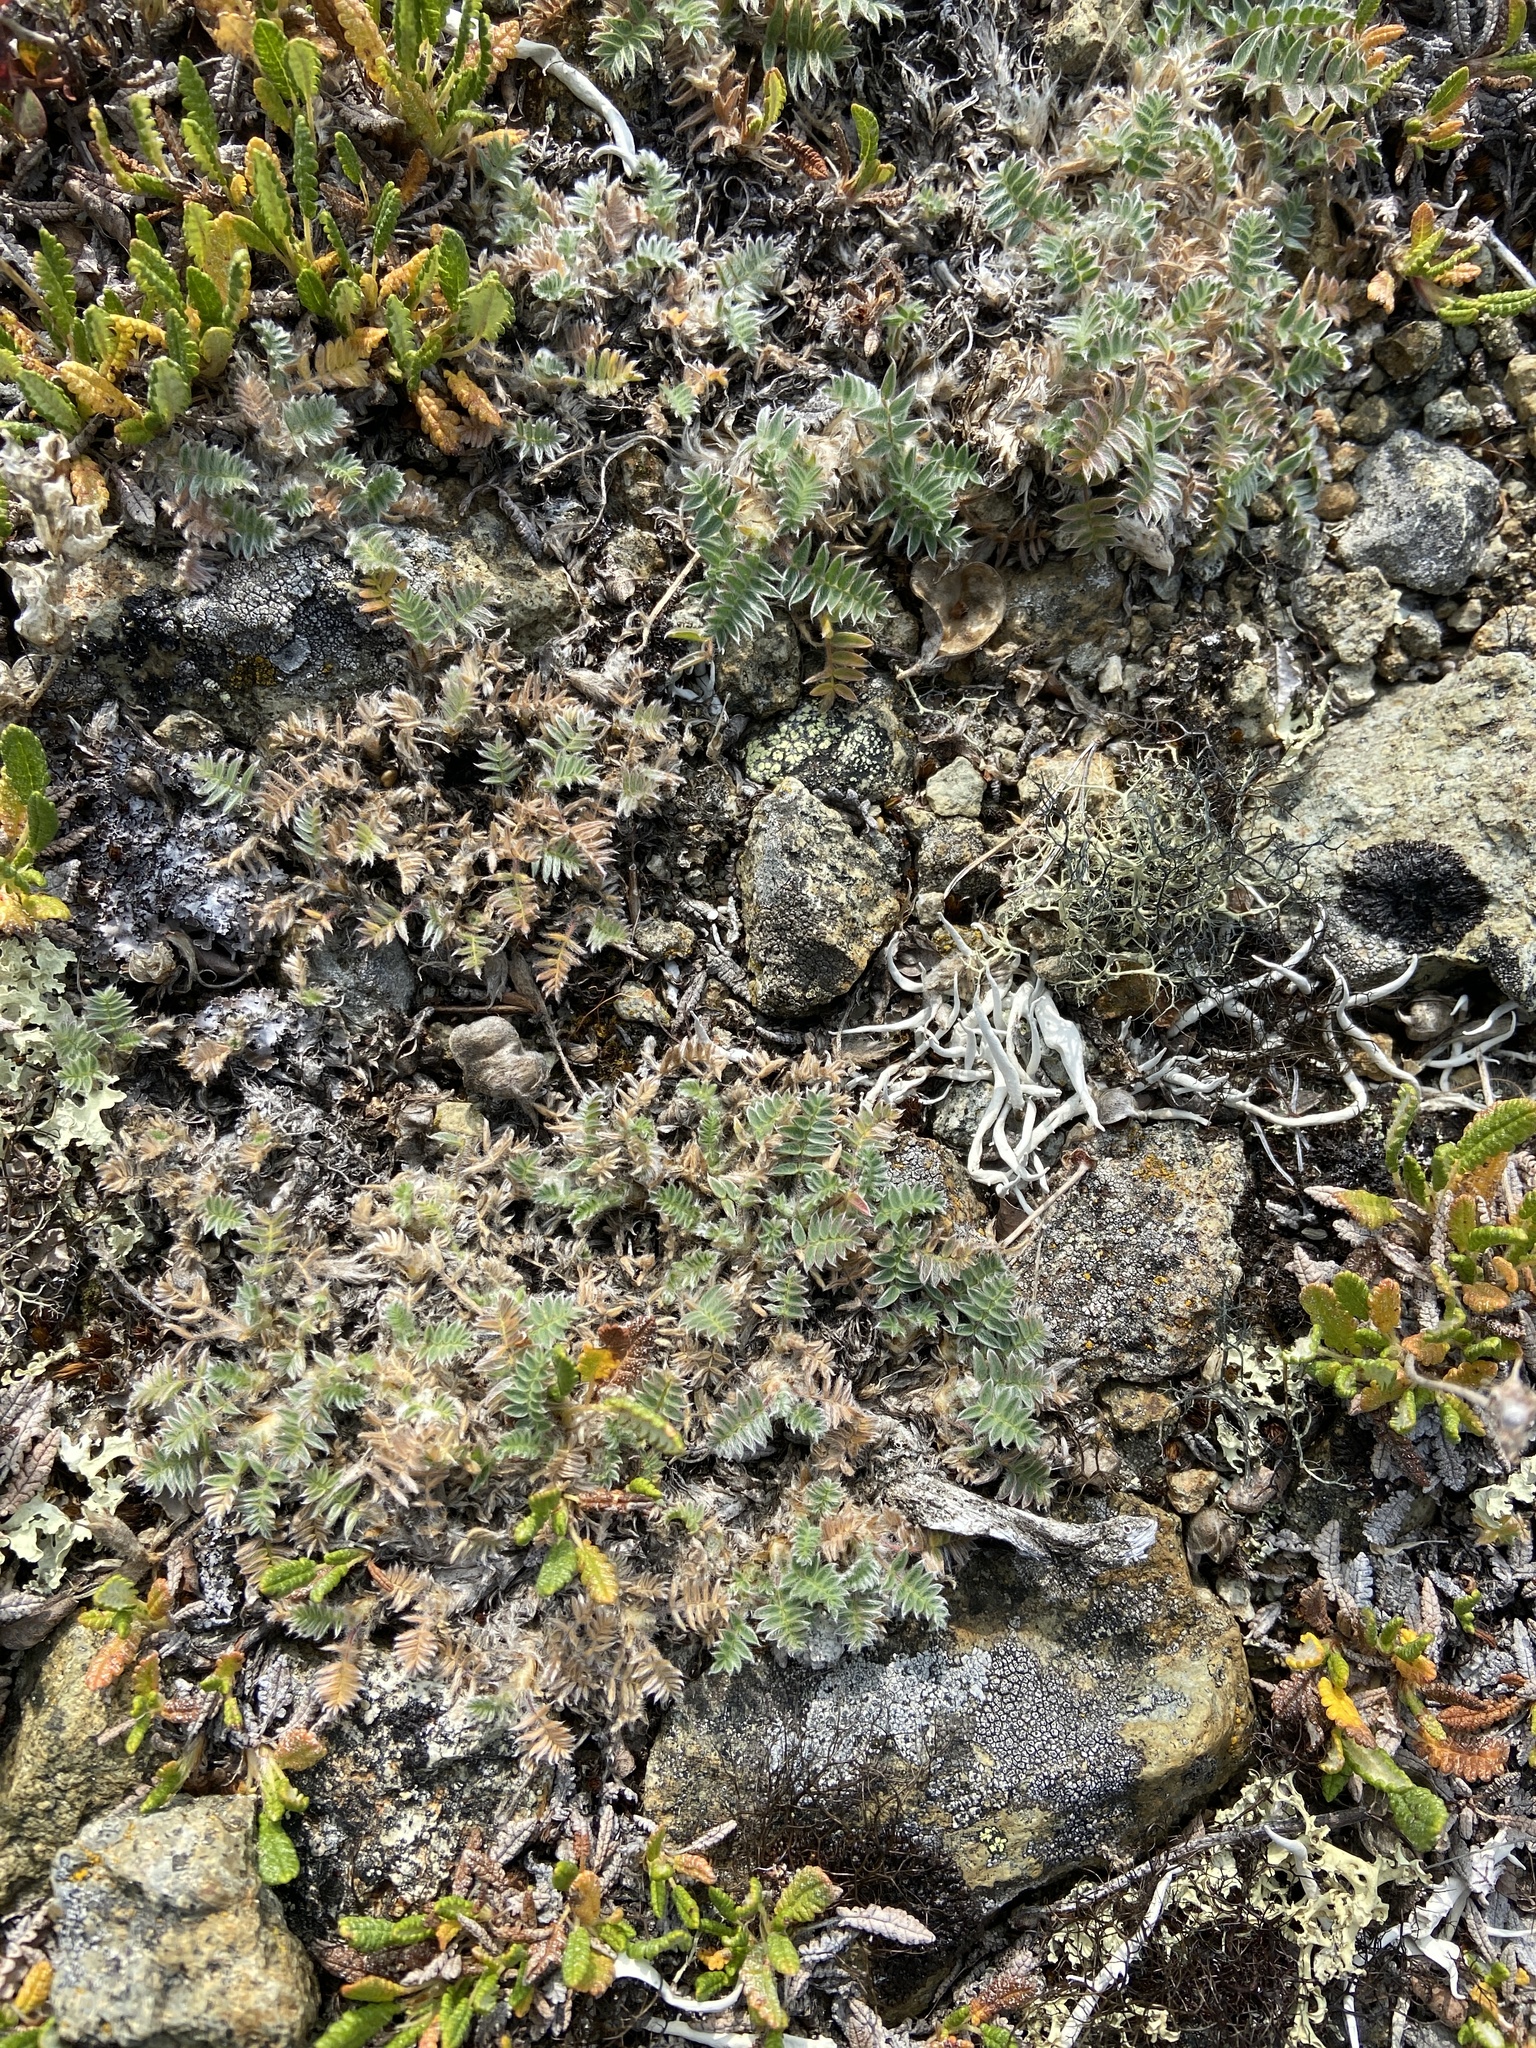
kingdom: Plantae
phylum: Tracheophyta
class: Magnoliopsida
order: Fabales
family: Fabaceae
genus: Oxytropis
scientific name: Oxytropis susumanica
